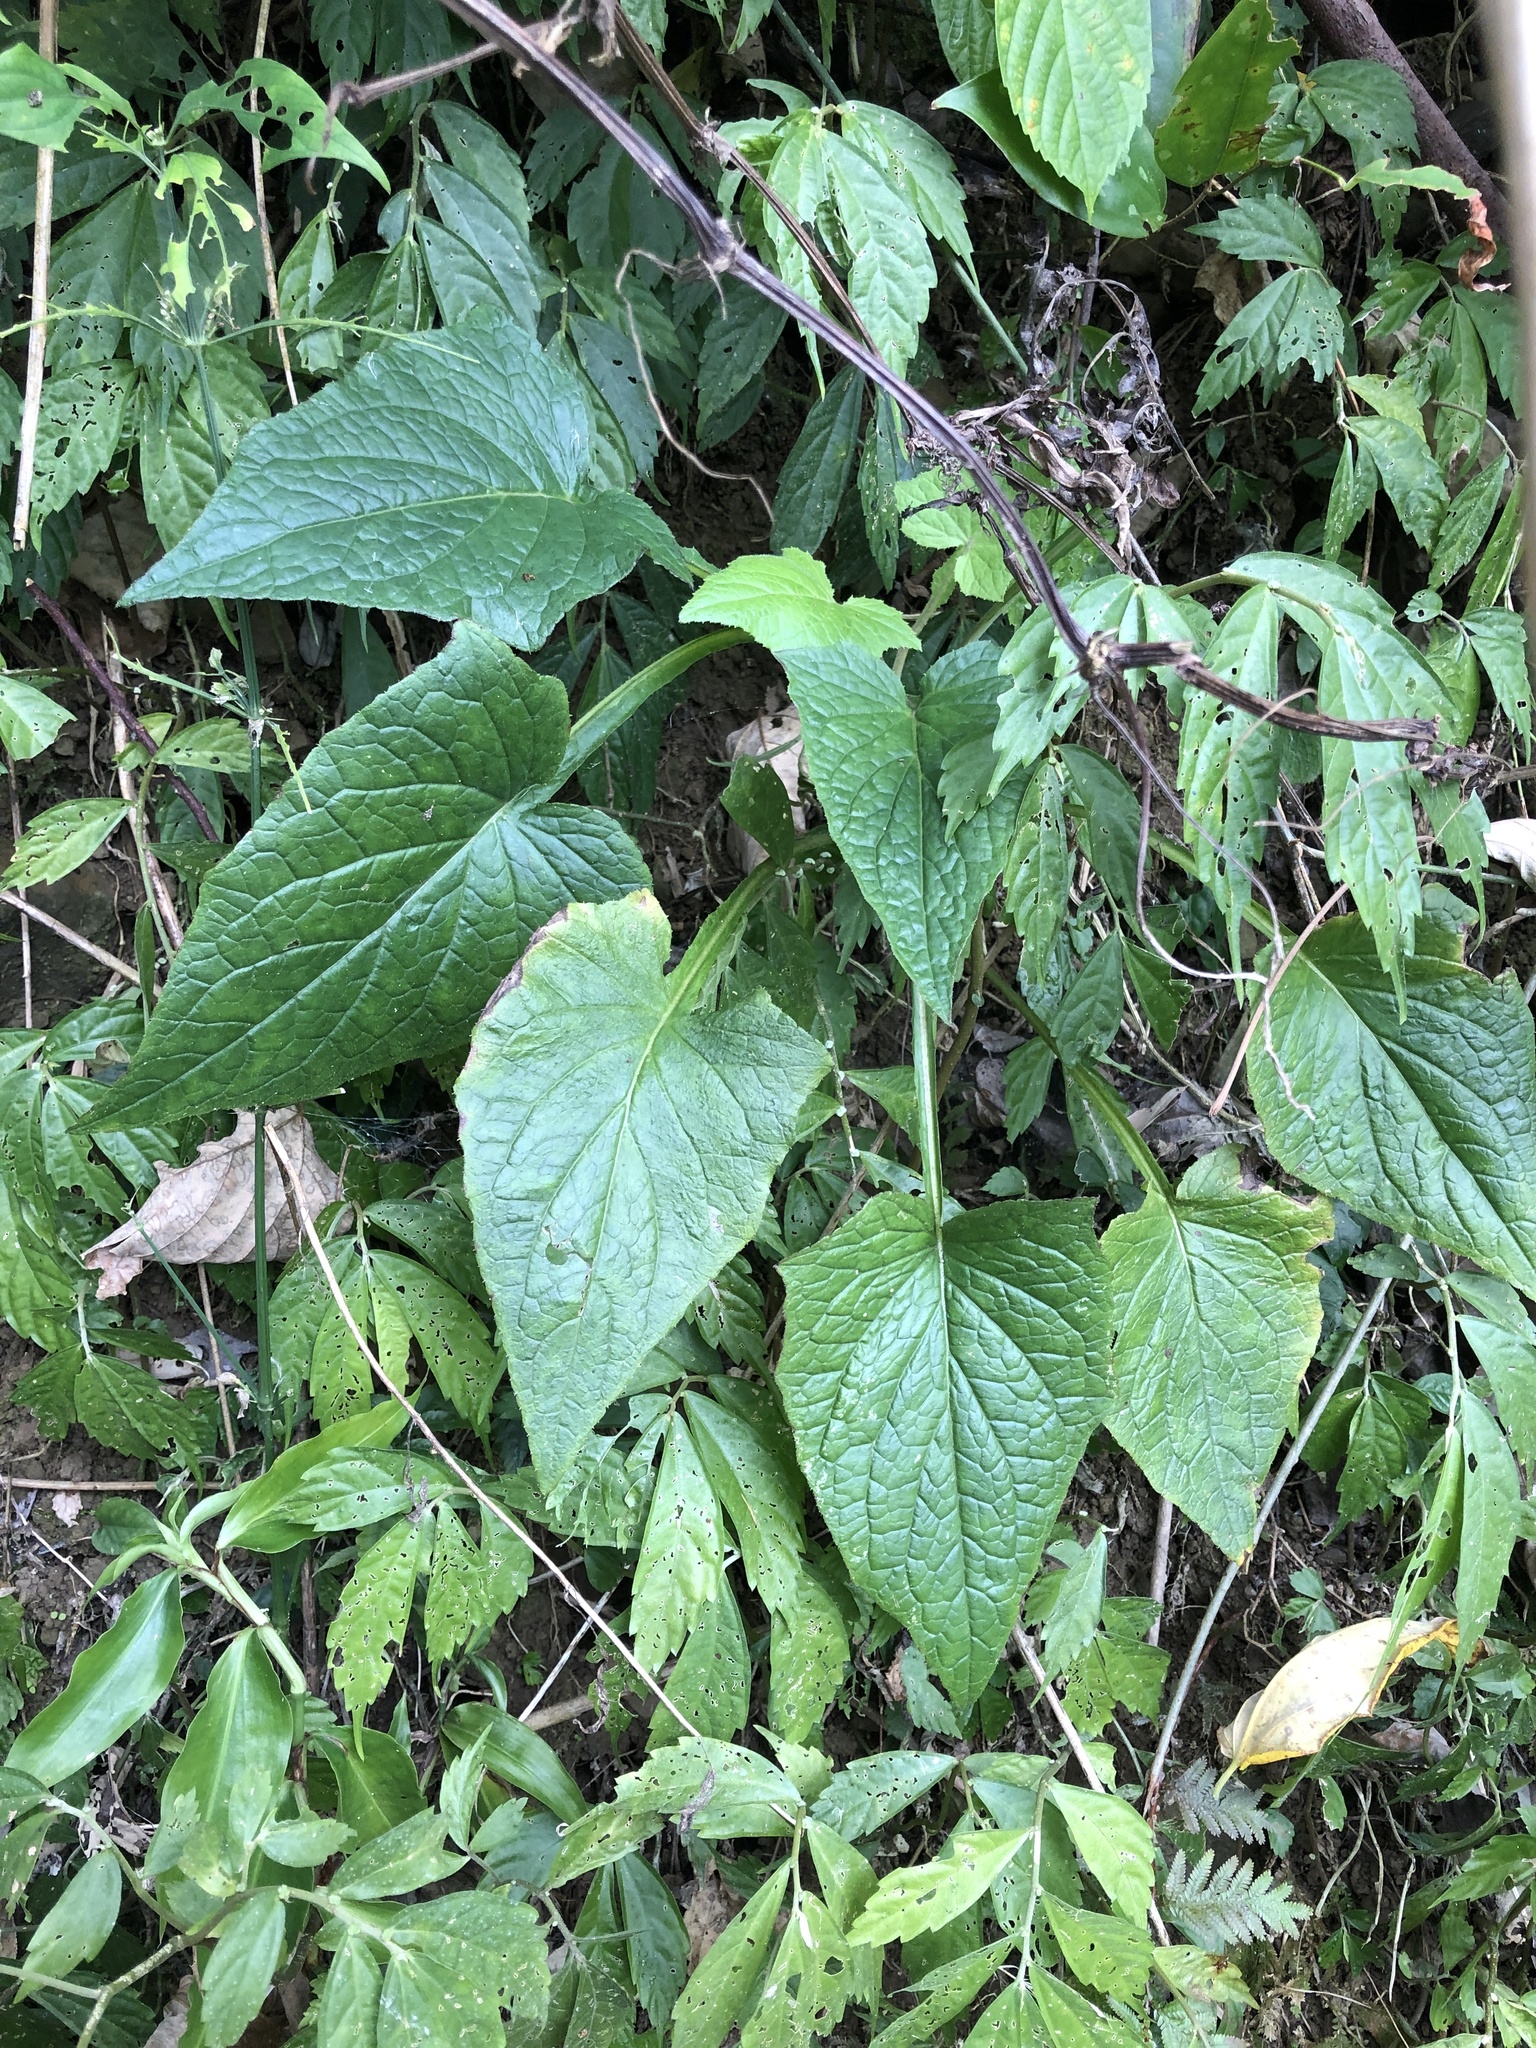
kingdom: Plantae
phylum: Tracheophyta
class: Magnoliopsida
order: Asterales
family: Asteraceae
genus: Paraprenanthes
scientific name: Paraprenanthes sororia
